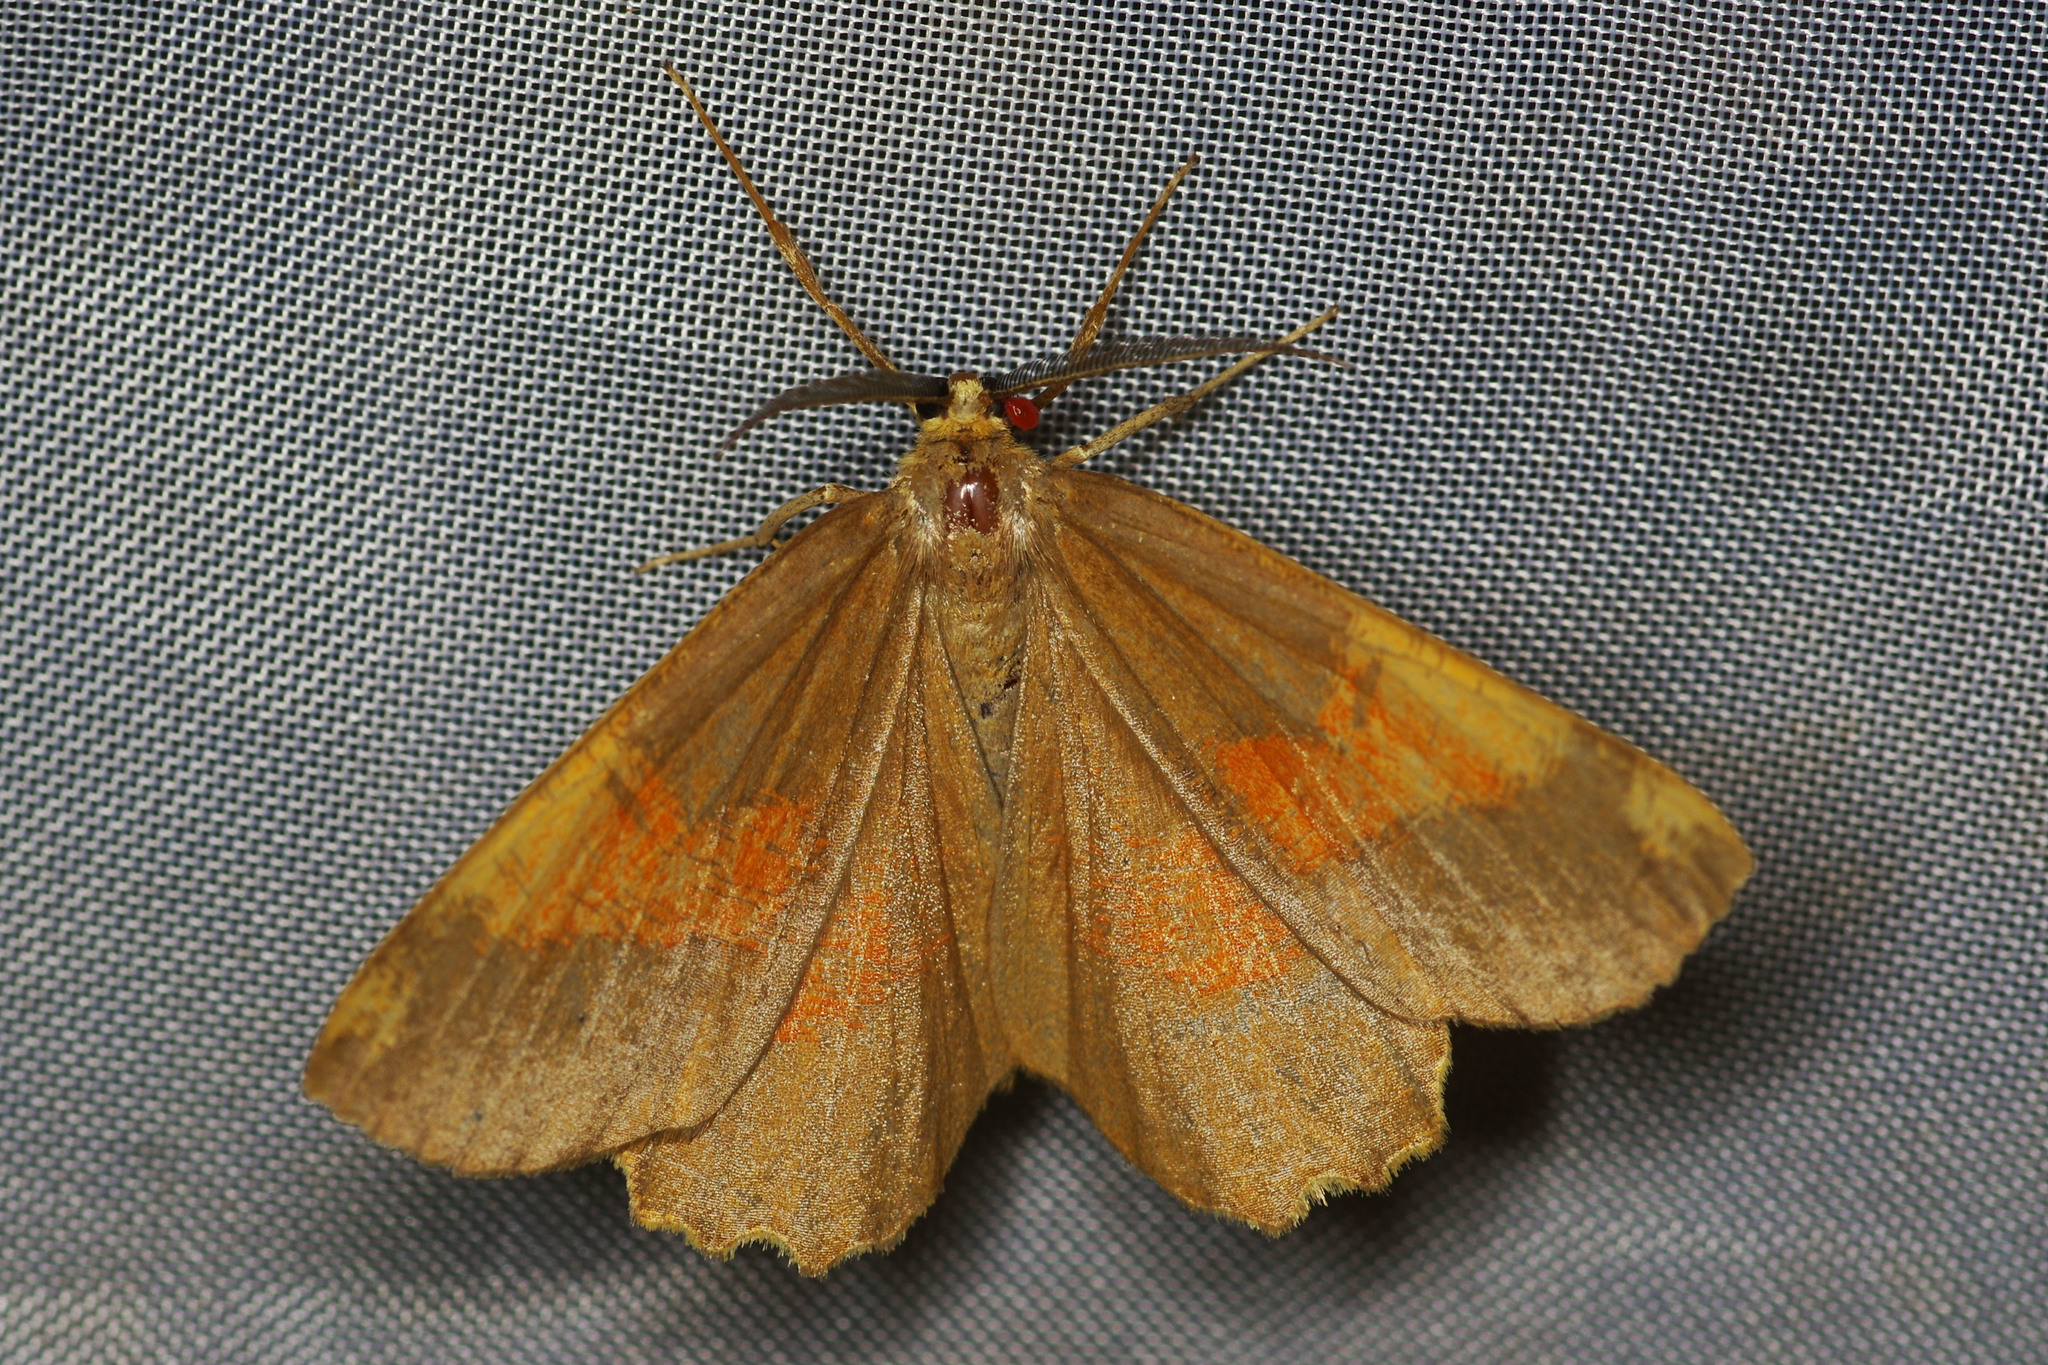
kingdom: Animalia
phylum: Arthropoda
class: Insecta
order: Lepidoptera
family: Geometridae
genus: Angerona
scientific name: Angerona prunaria
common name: Orange moth
